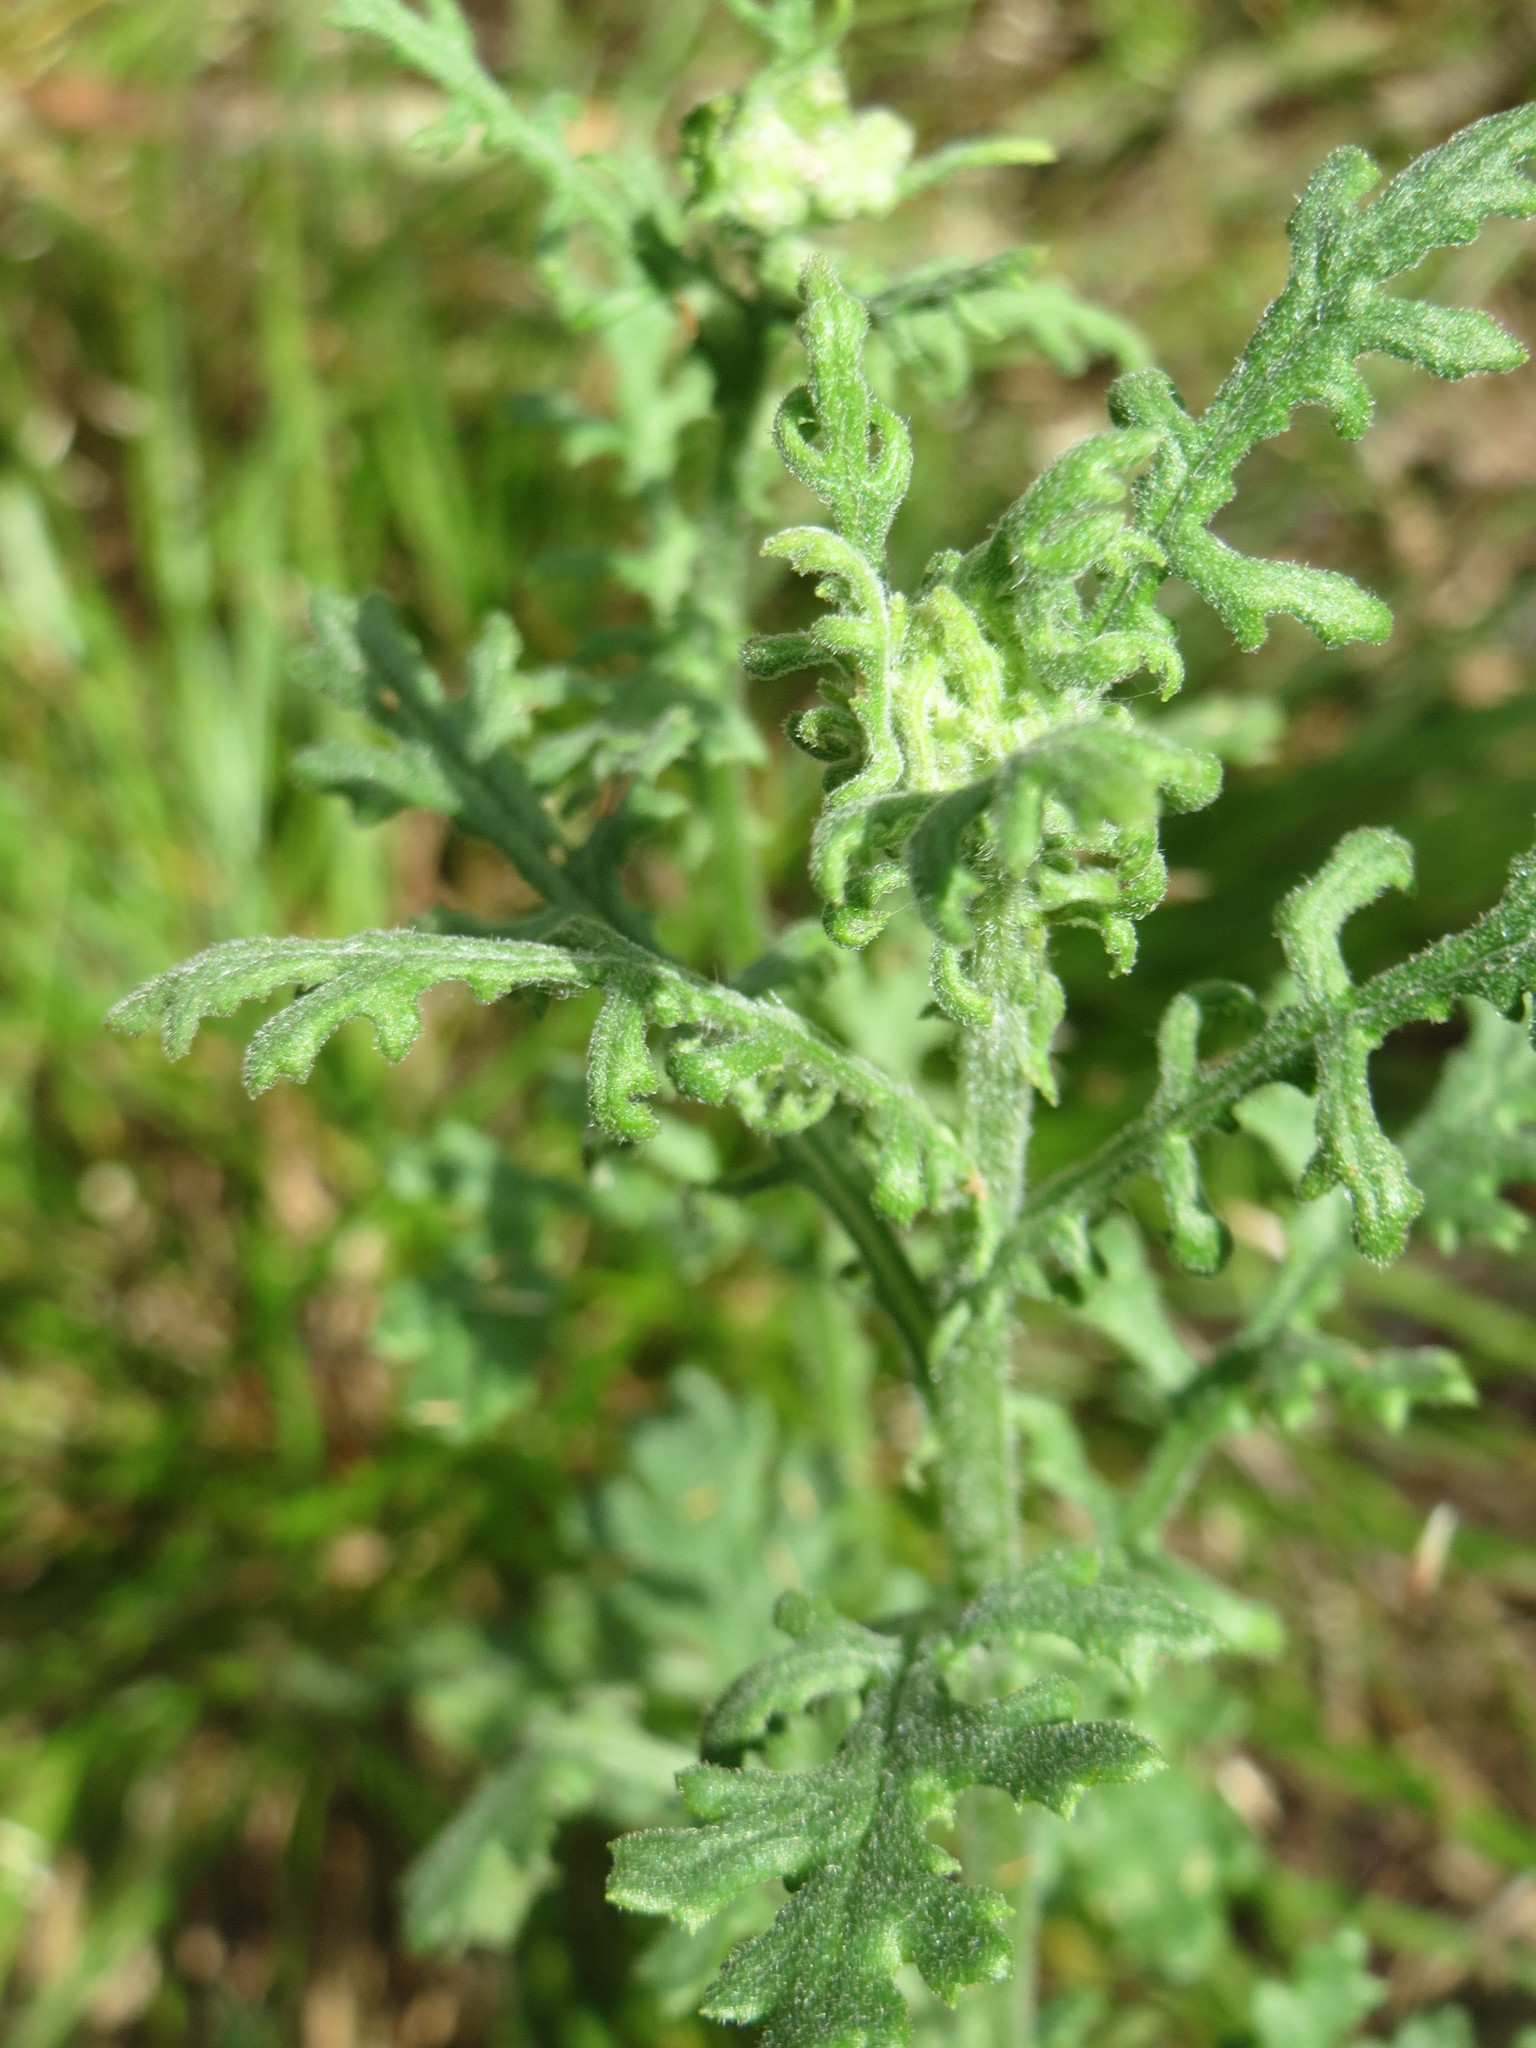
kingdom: Plantae
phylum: Tracheophyta
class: Magnoliopsida
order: Asterales
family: Asteraceae
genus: Senecio
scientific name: Senecio sylvaticus
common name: Woodland ragwort
